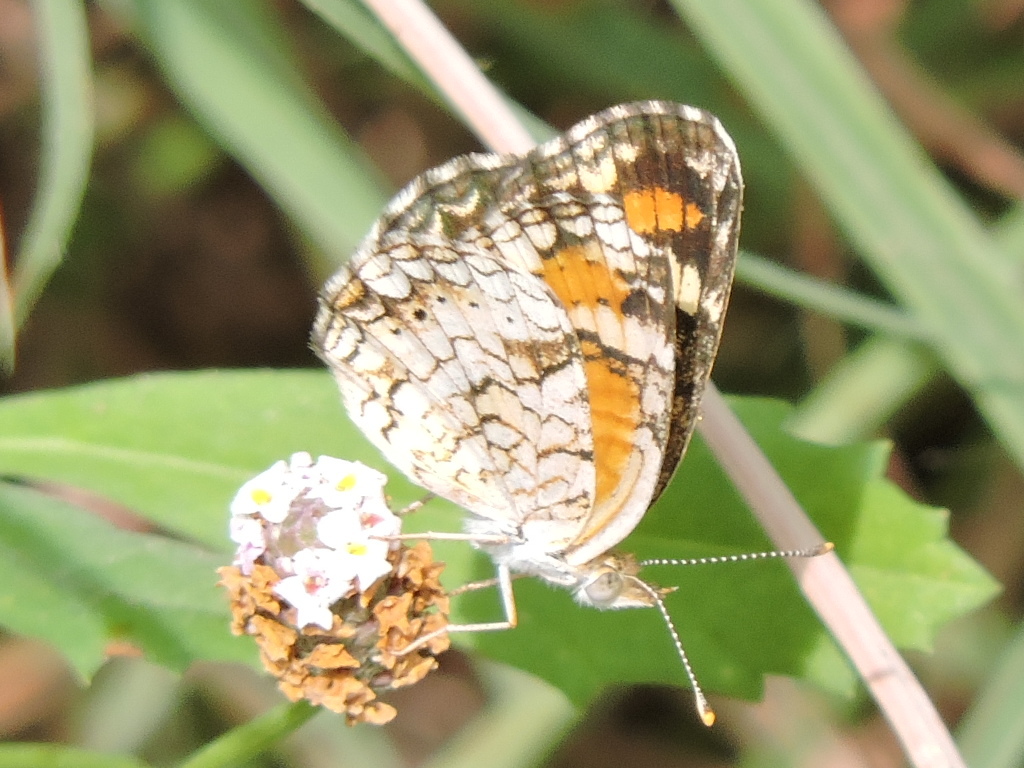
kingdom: Animalia
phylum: Arthropoda
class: Insecta
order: Lepidoptera
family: Nymphalidae
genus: Phyciodes
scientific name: Phyciodes phaon
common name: Phaon crescent
